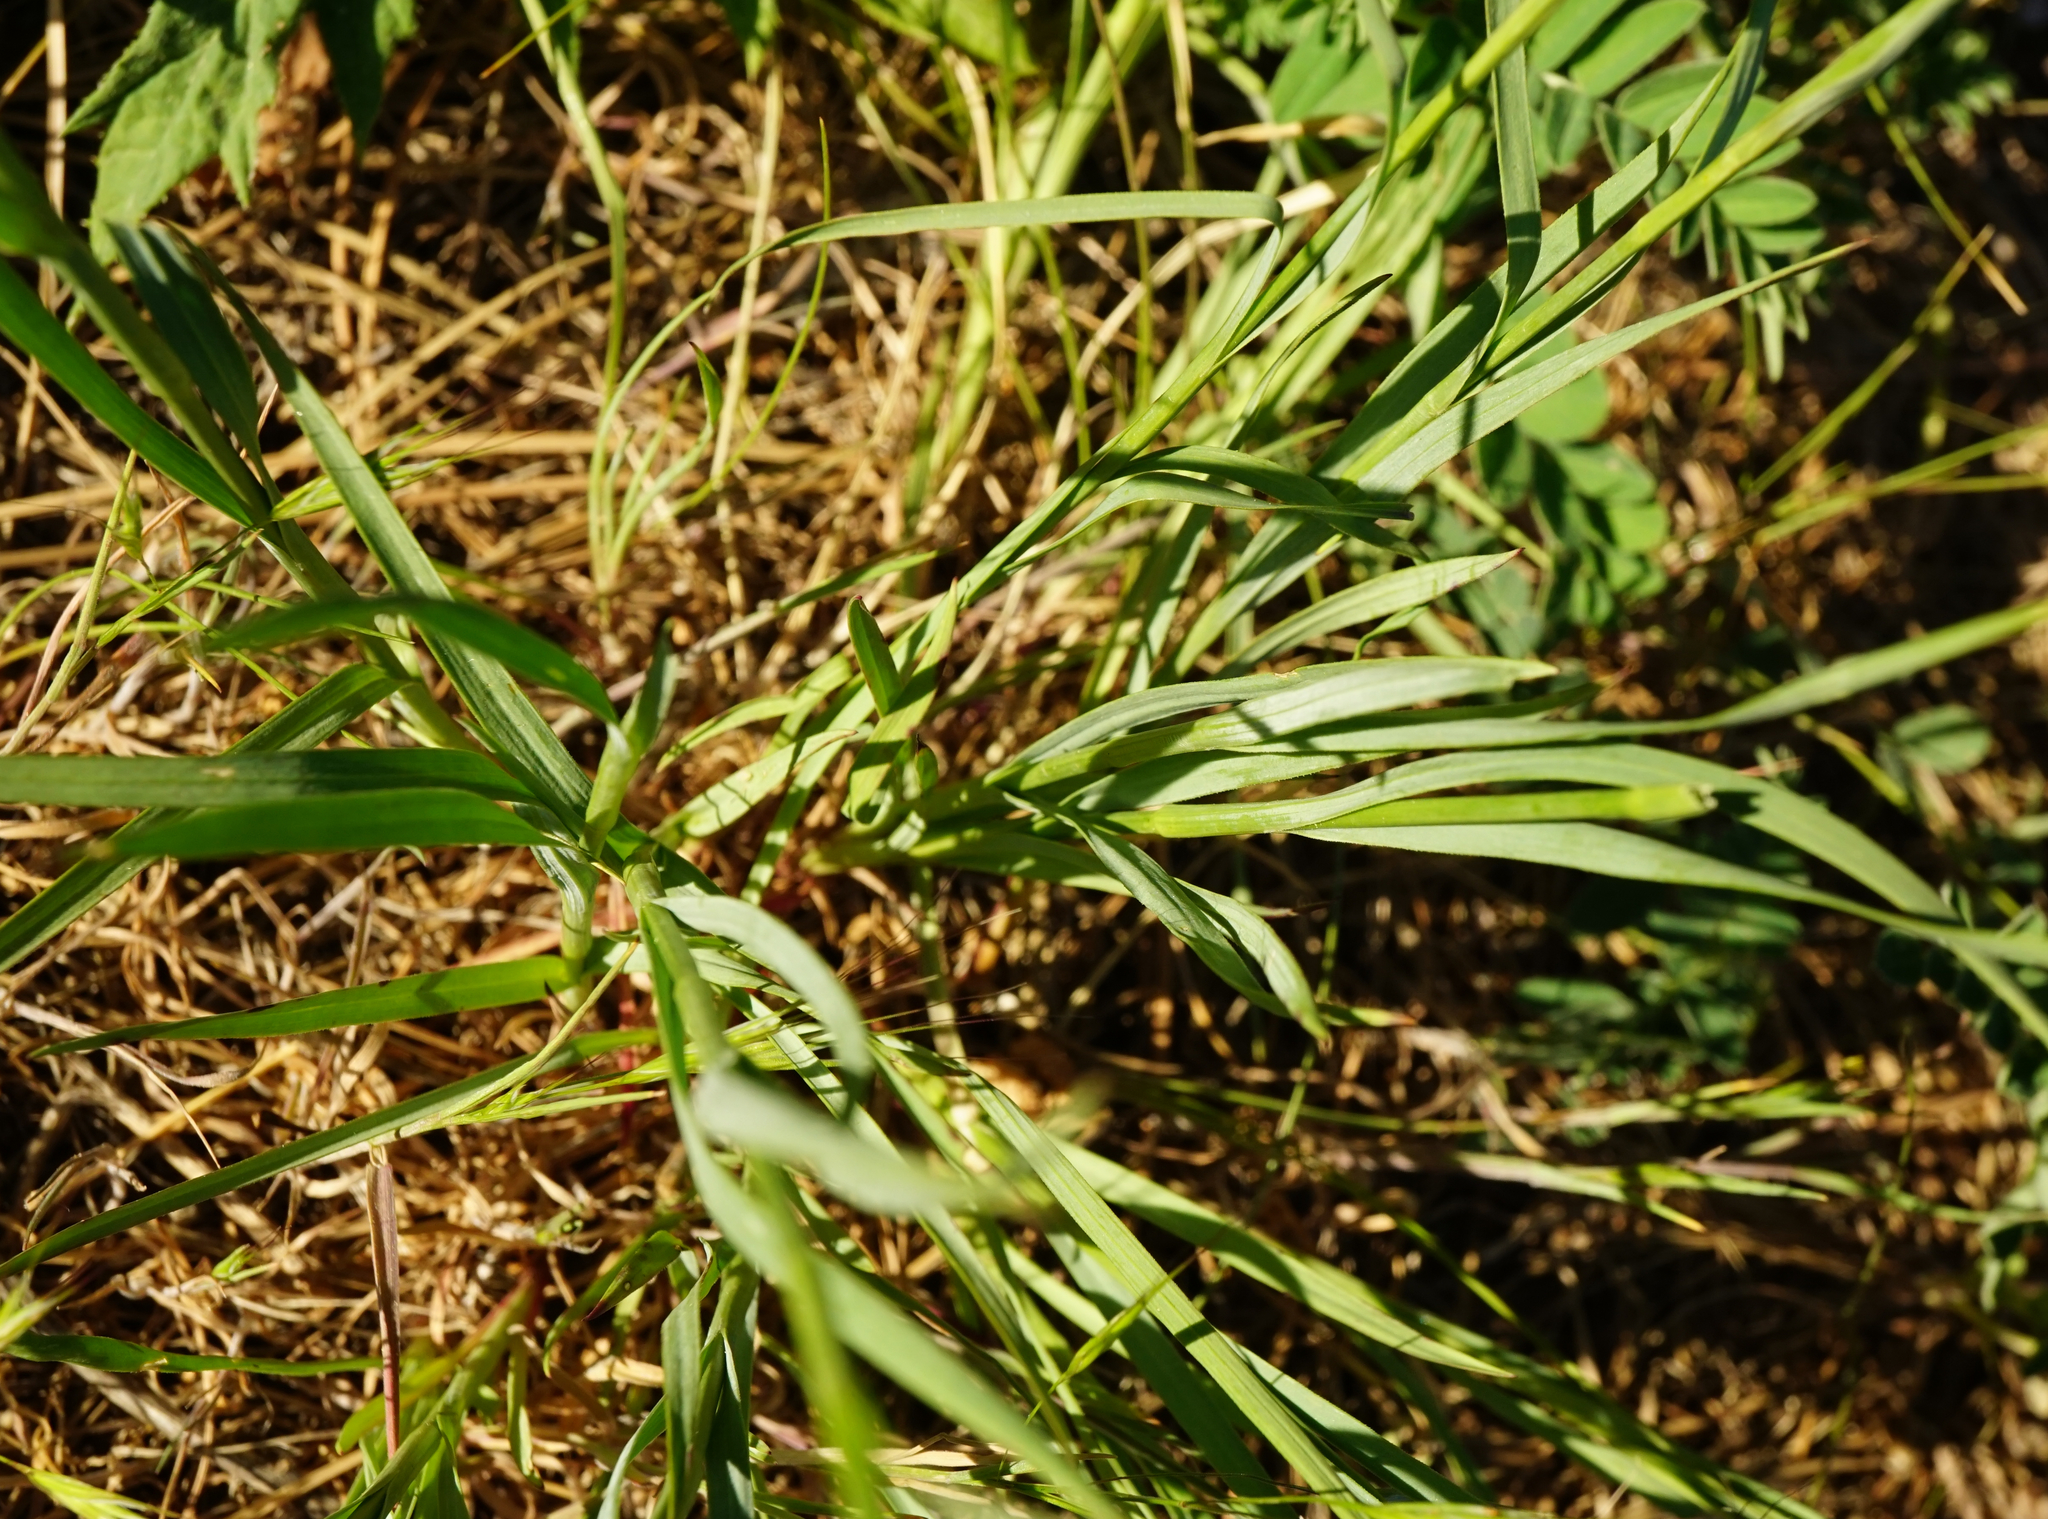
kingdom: Plantae
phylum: Tracheophyta
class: Magnoliopsida
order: Caryophyllales
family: Caryophyllaceae
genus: Dianthus
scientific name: Dianthus carthusianorum
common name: Carthusian pink
